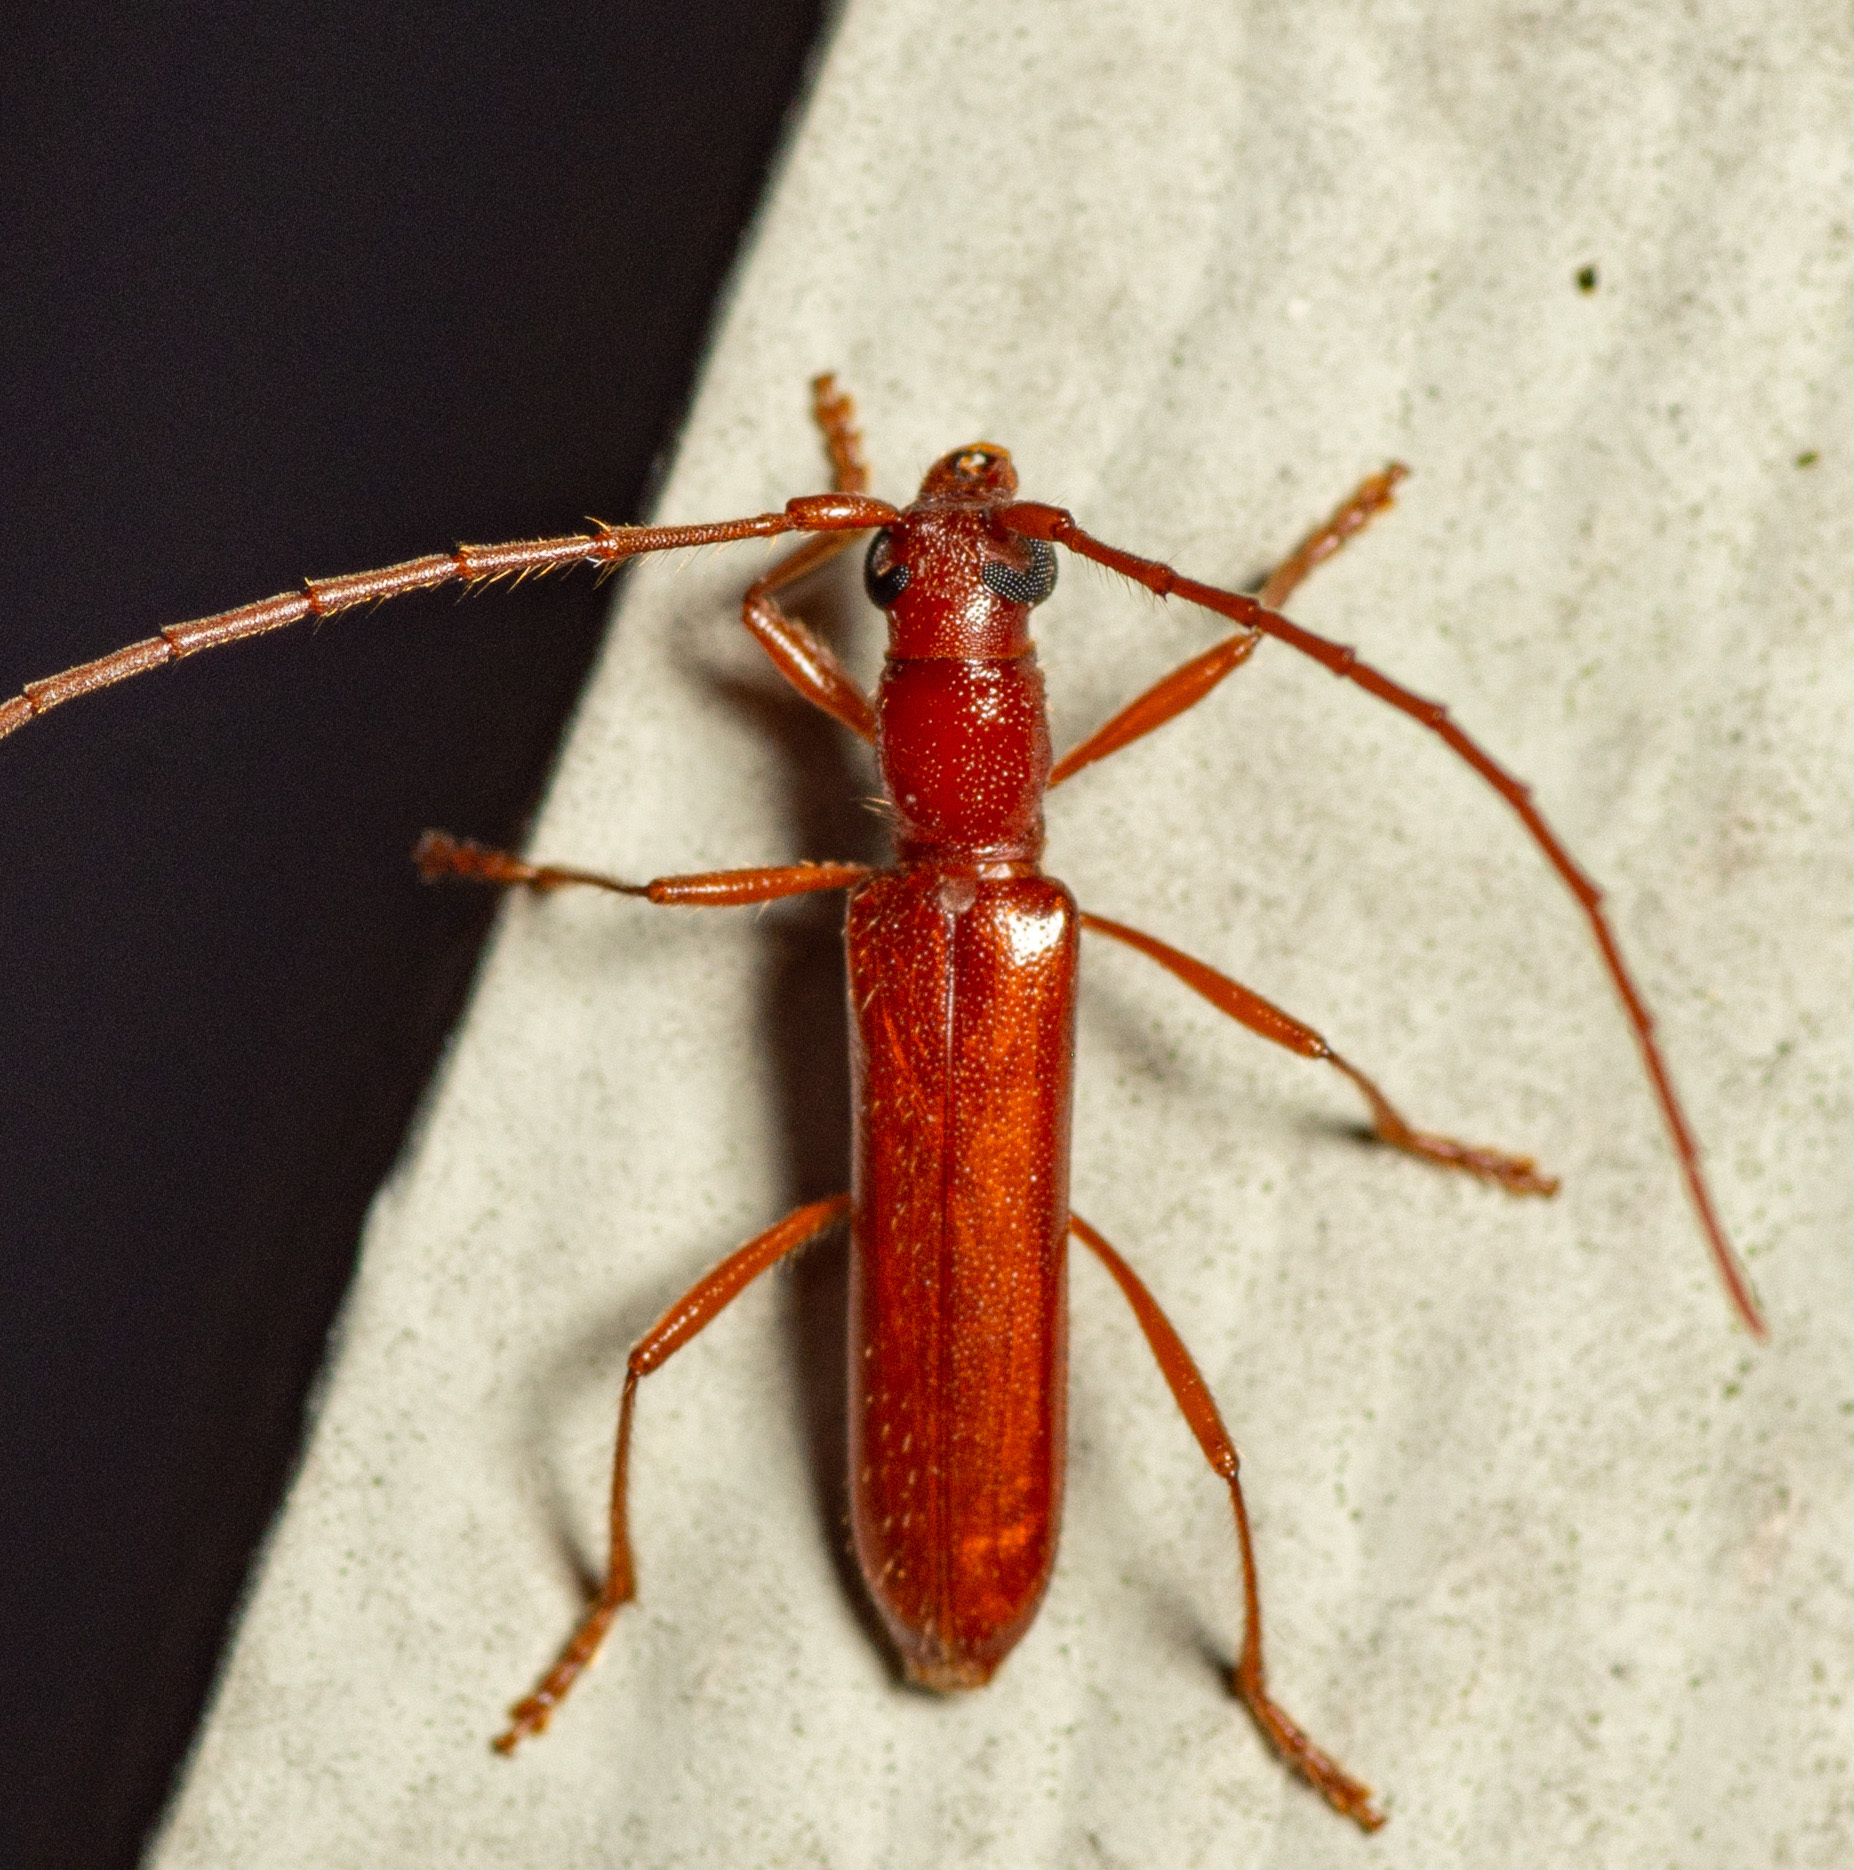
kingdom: Animalia
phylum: Arthropoda
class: Insecta
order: Coleoptera
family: Cerambycidae
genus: Psyrassa
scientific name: Psyrassa unicolor
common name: Branch pruner
